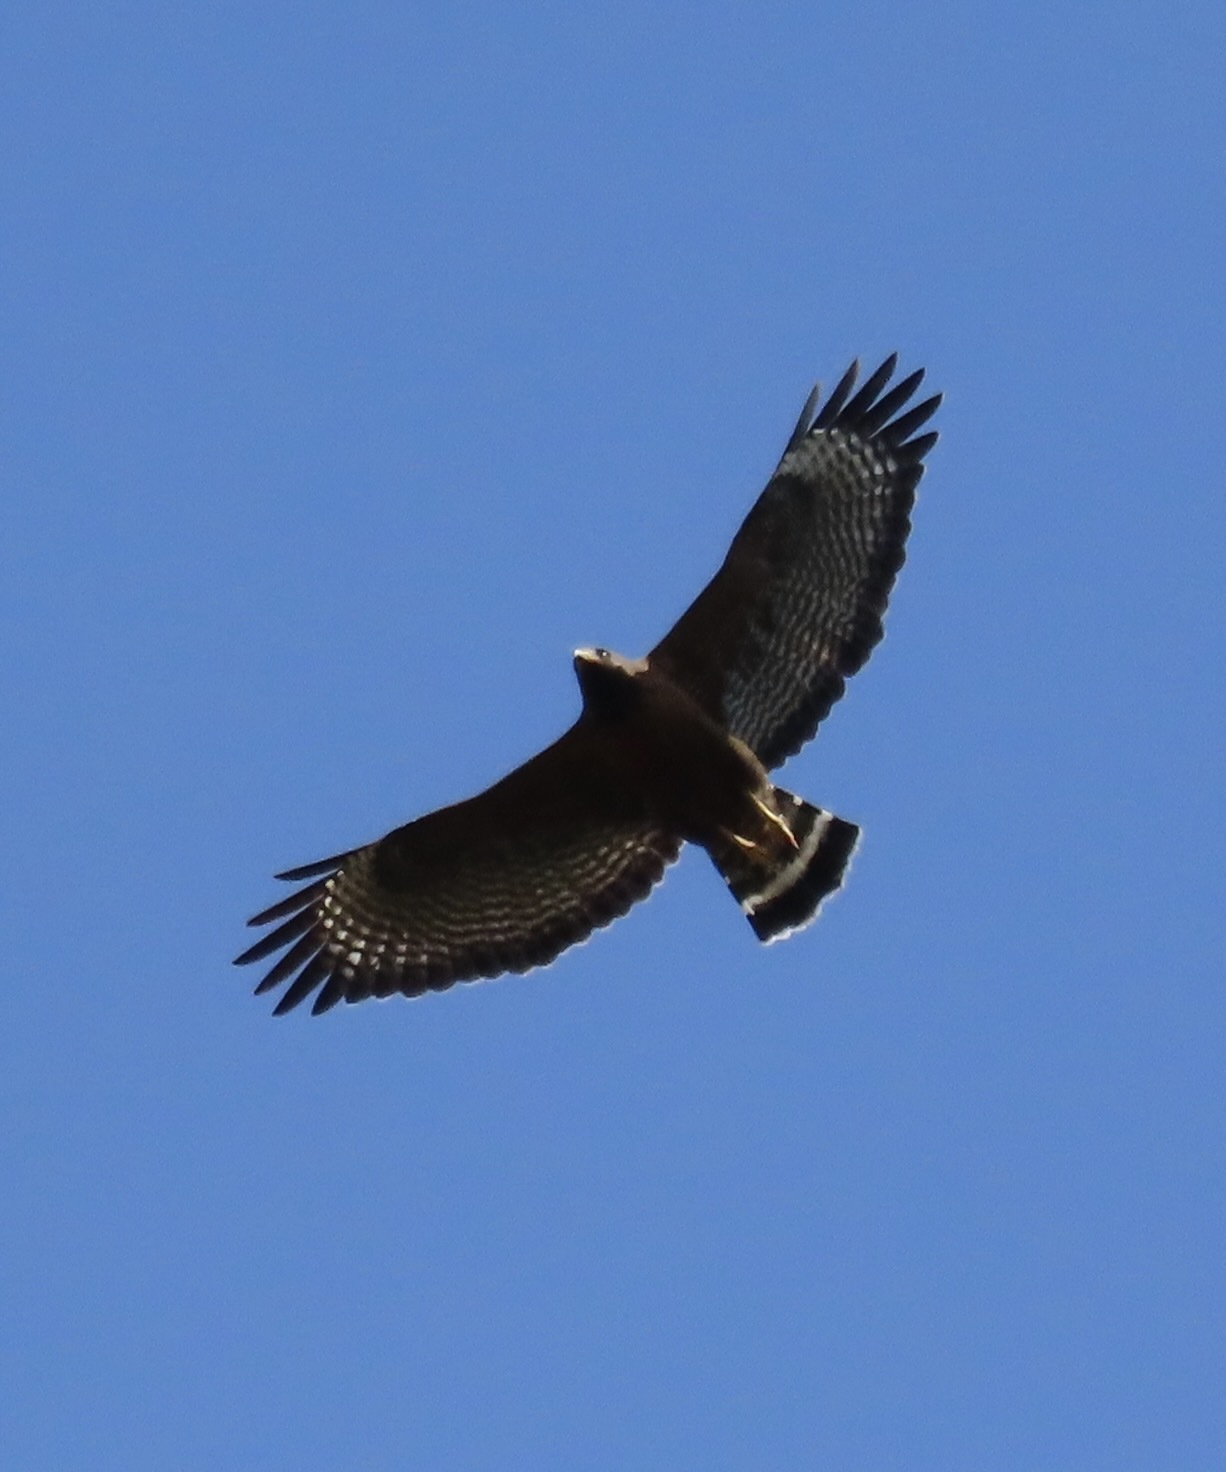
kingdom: Animalia
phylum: Chordata
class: Aves
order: Accipitriformes
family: Accipitridae
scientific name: Accipitridae
